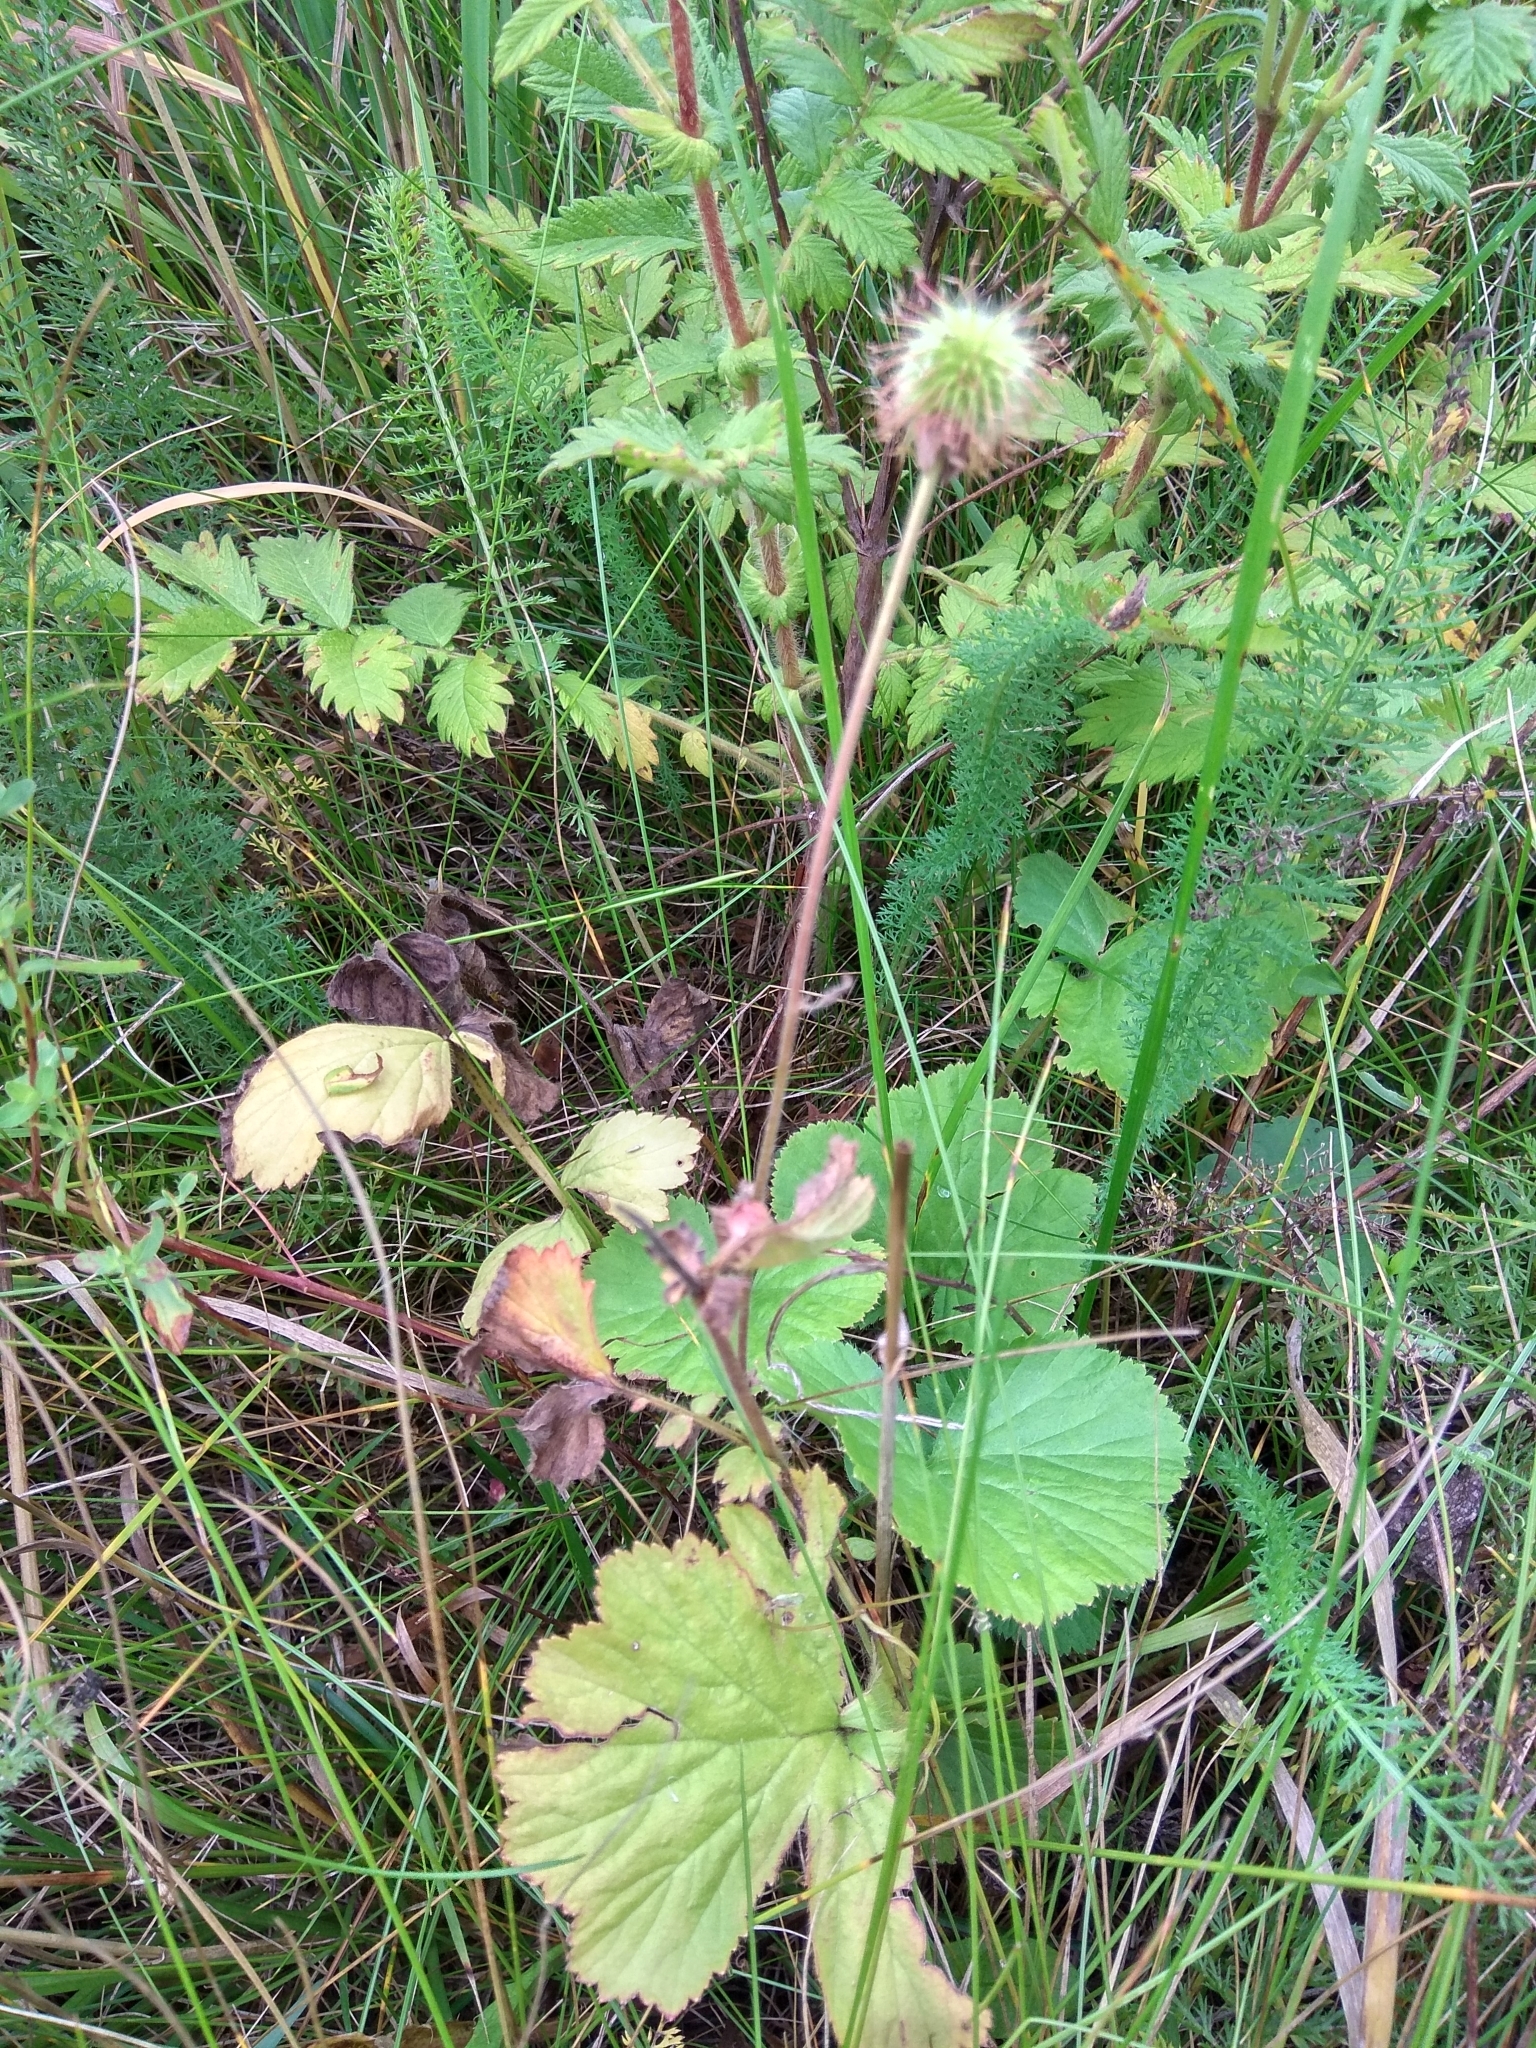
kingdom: Plantae
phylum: Tracheophyta
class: Magnoliopsida
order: Rosales
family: Rosaceae
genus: Geum
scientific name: Geum aleppicum
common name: Yellow avens
